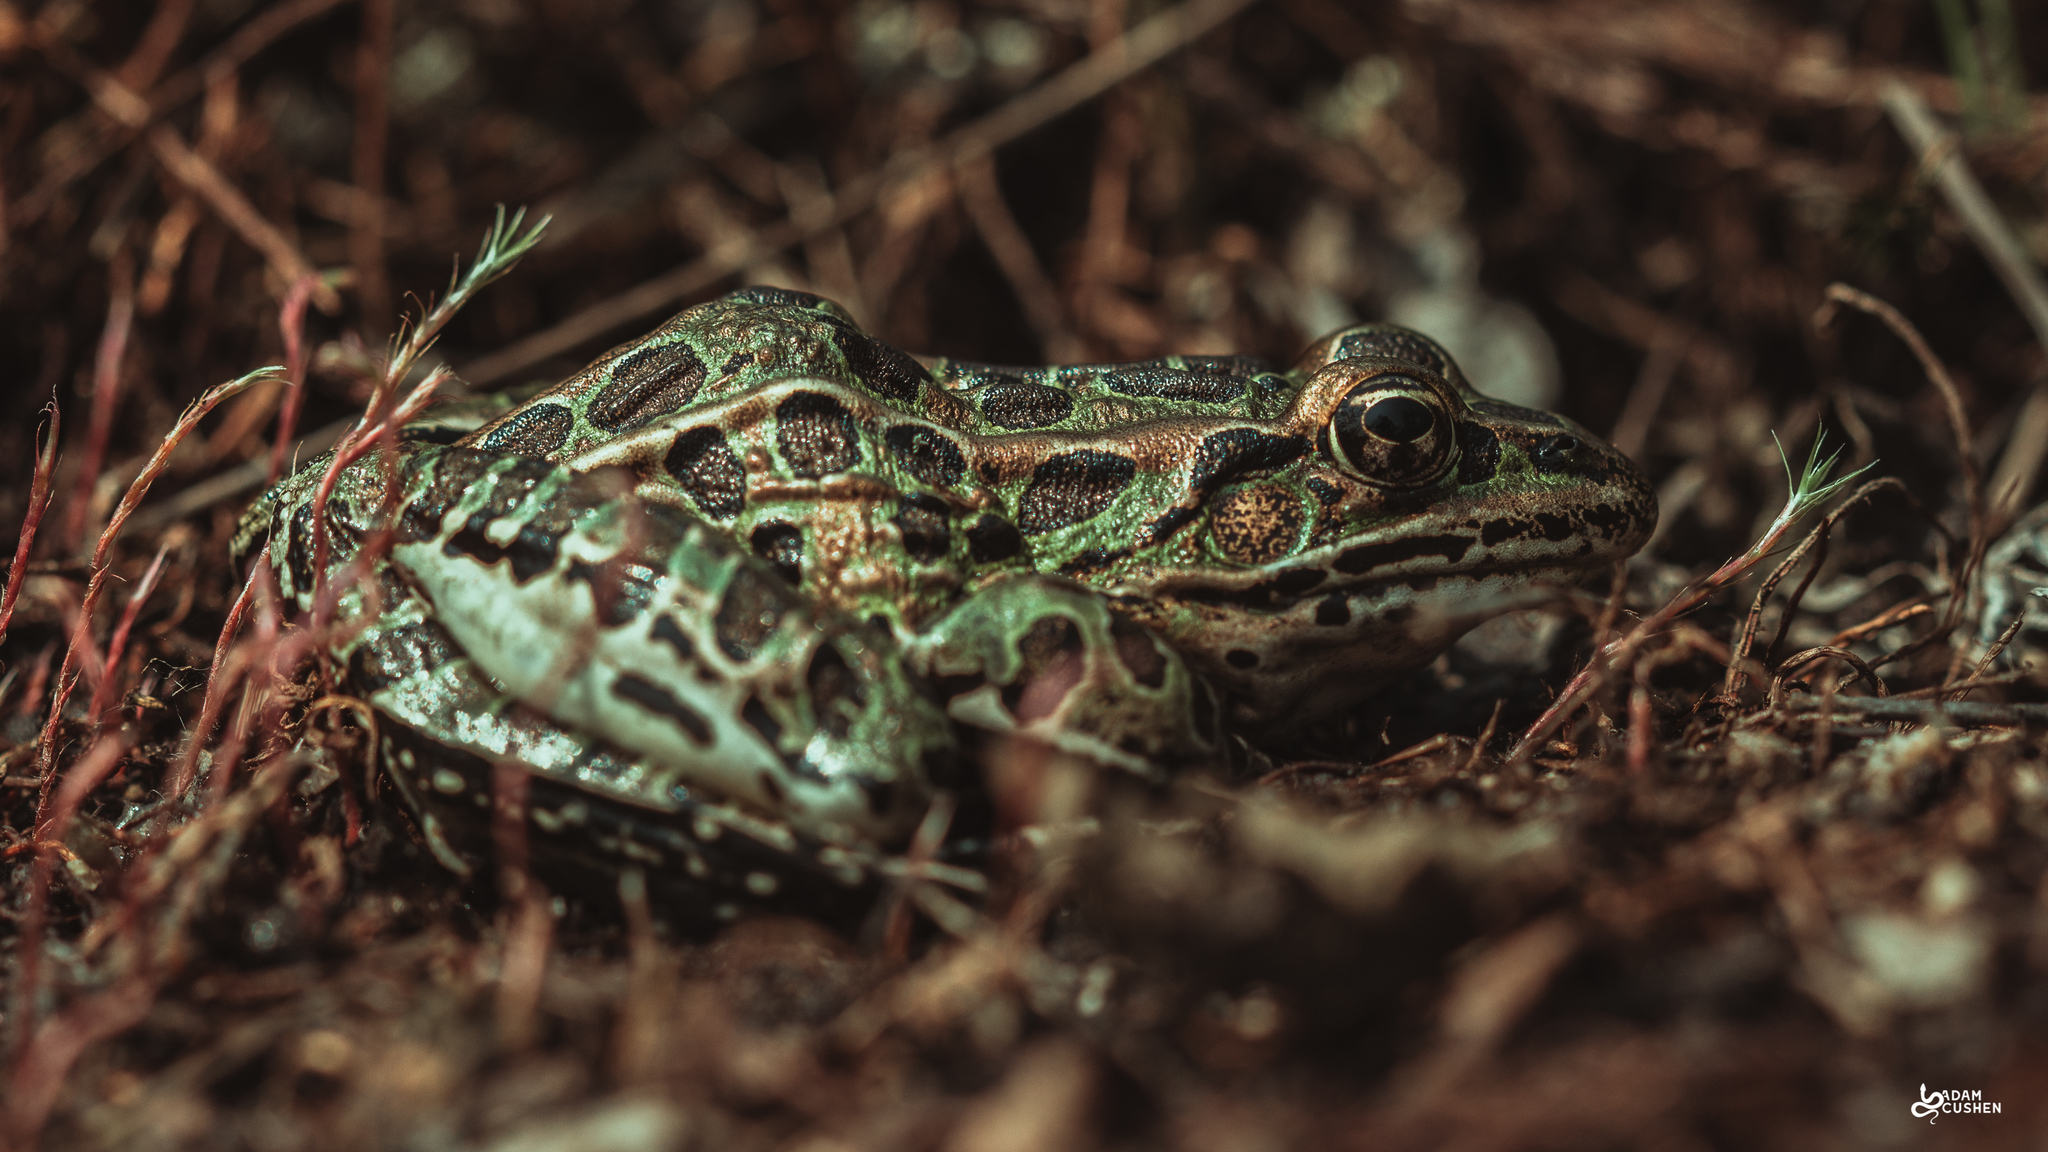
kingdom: Animalia
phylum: Chordata
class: Amphibia
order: Anura
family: Ranidae
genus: Lithobates
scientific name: Lithobates pipiens
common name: Northern leopard frog
